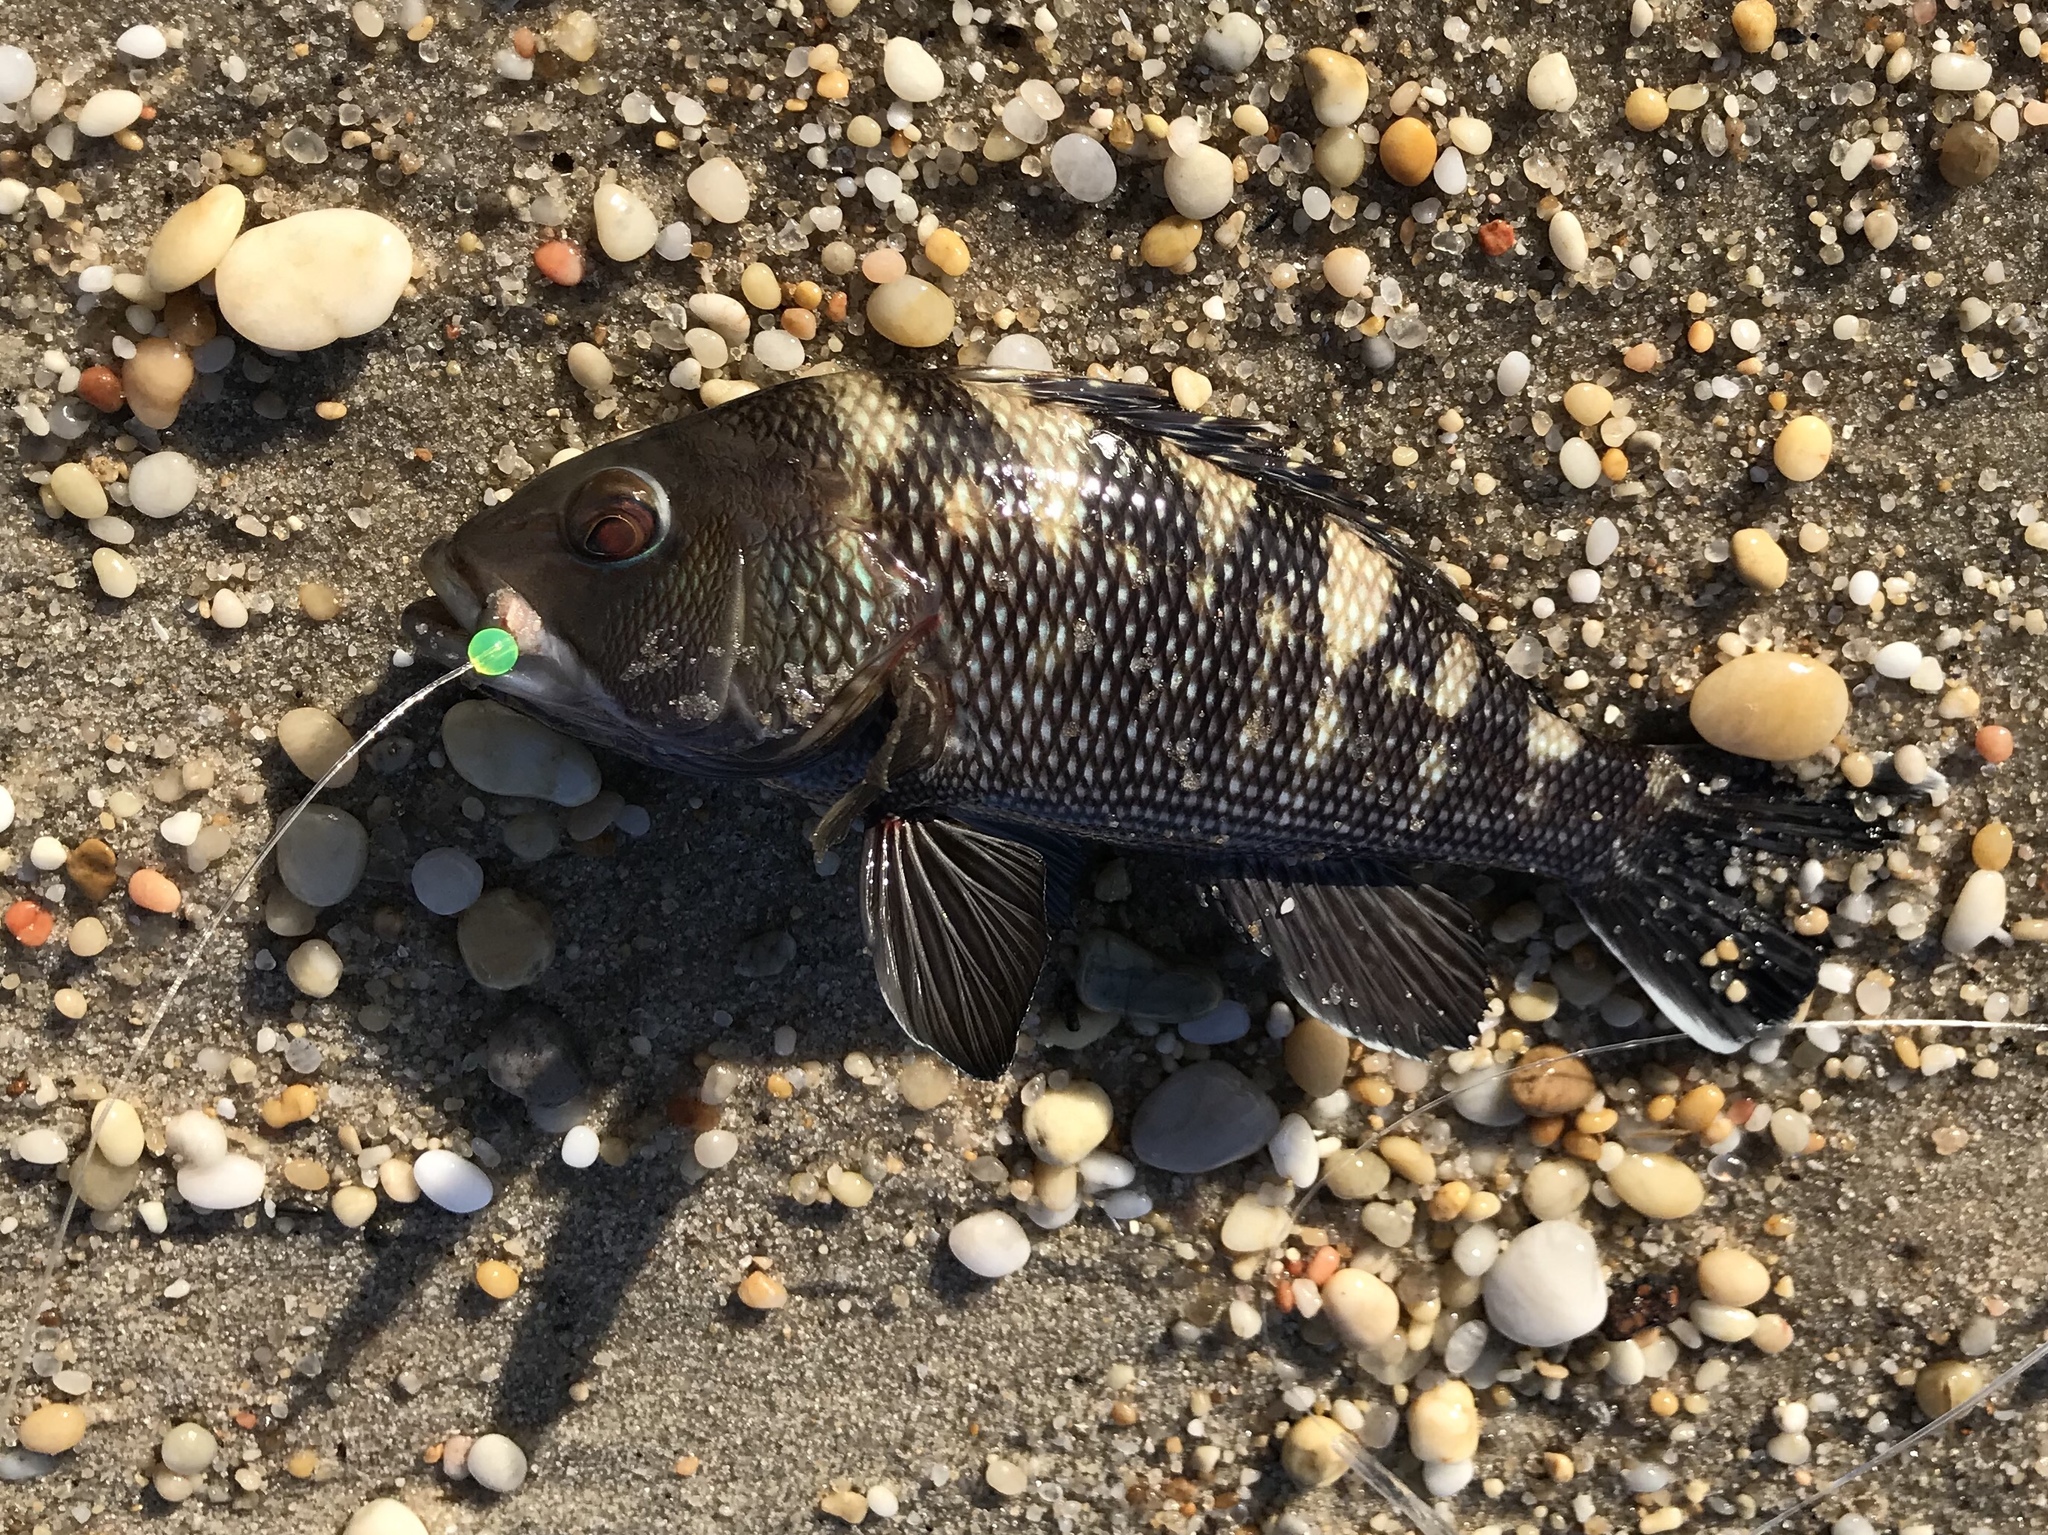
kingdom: Animalia
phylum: Chordata
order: Perciformes
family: Serranidae
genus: Centropristis
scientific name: Centropristis striata
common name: Black sea bass
